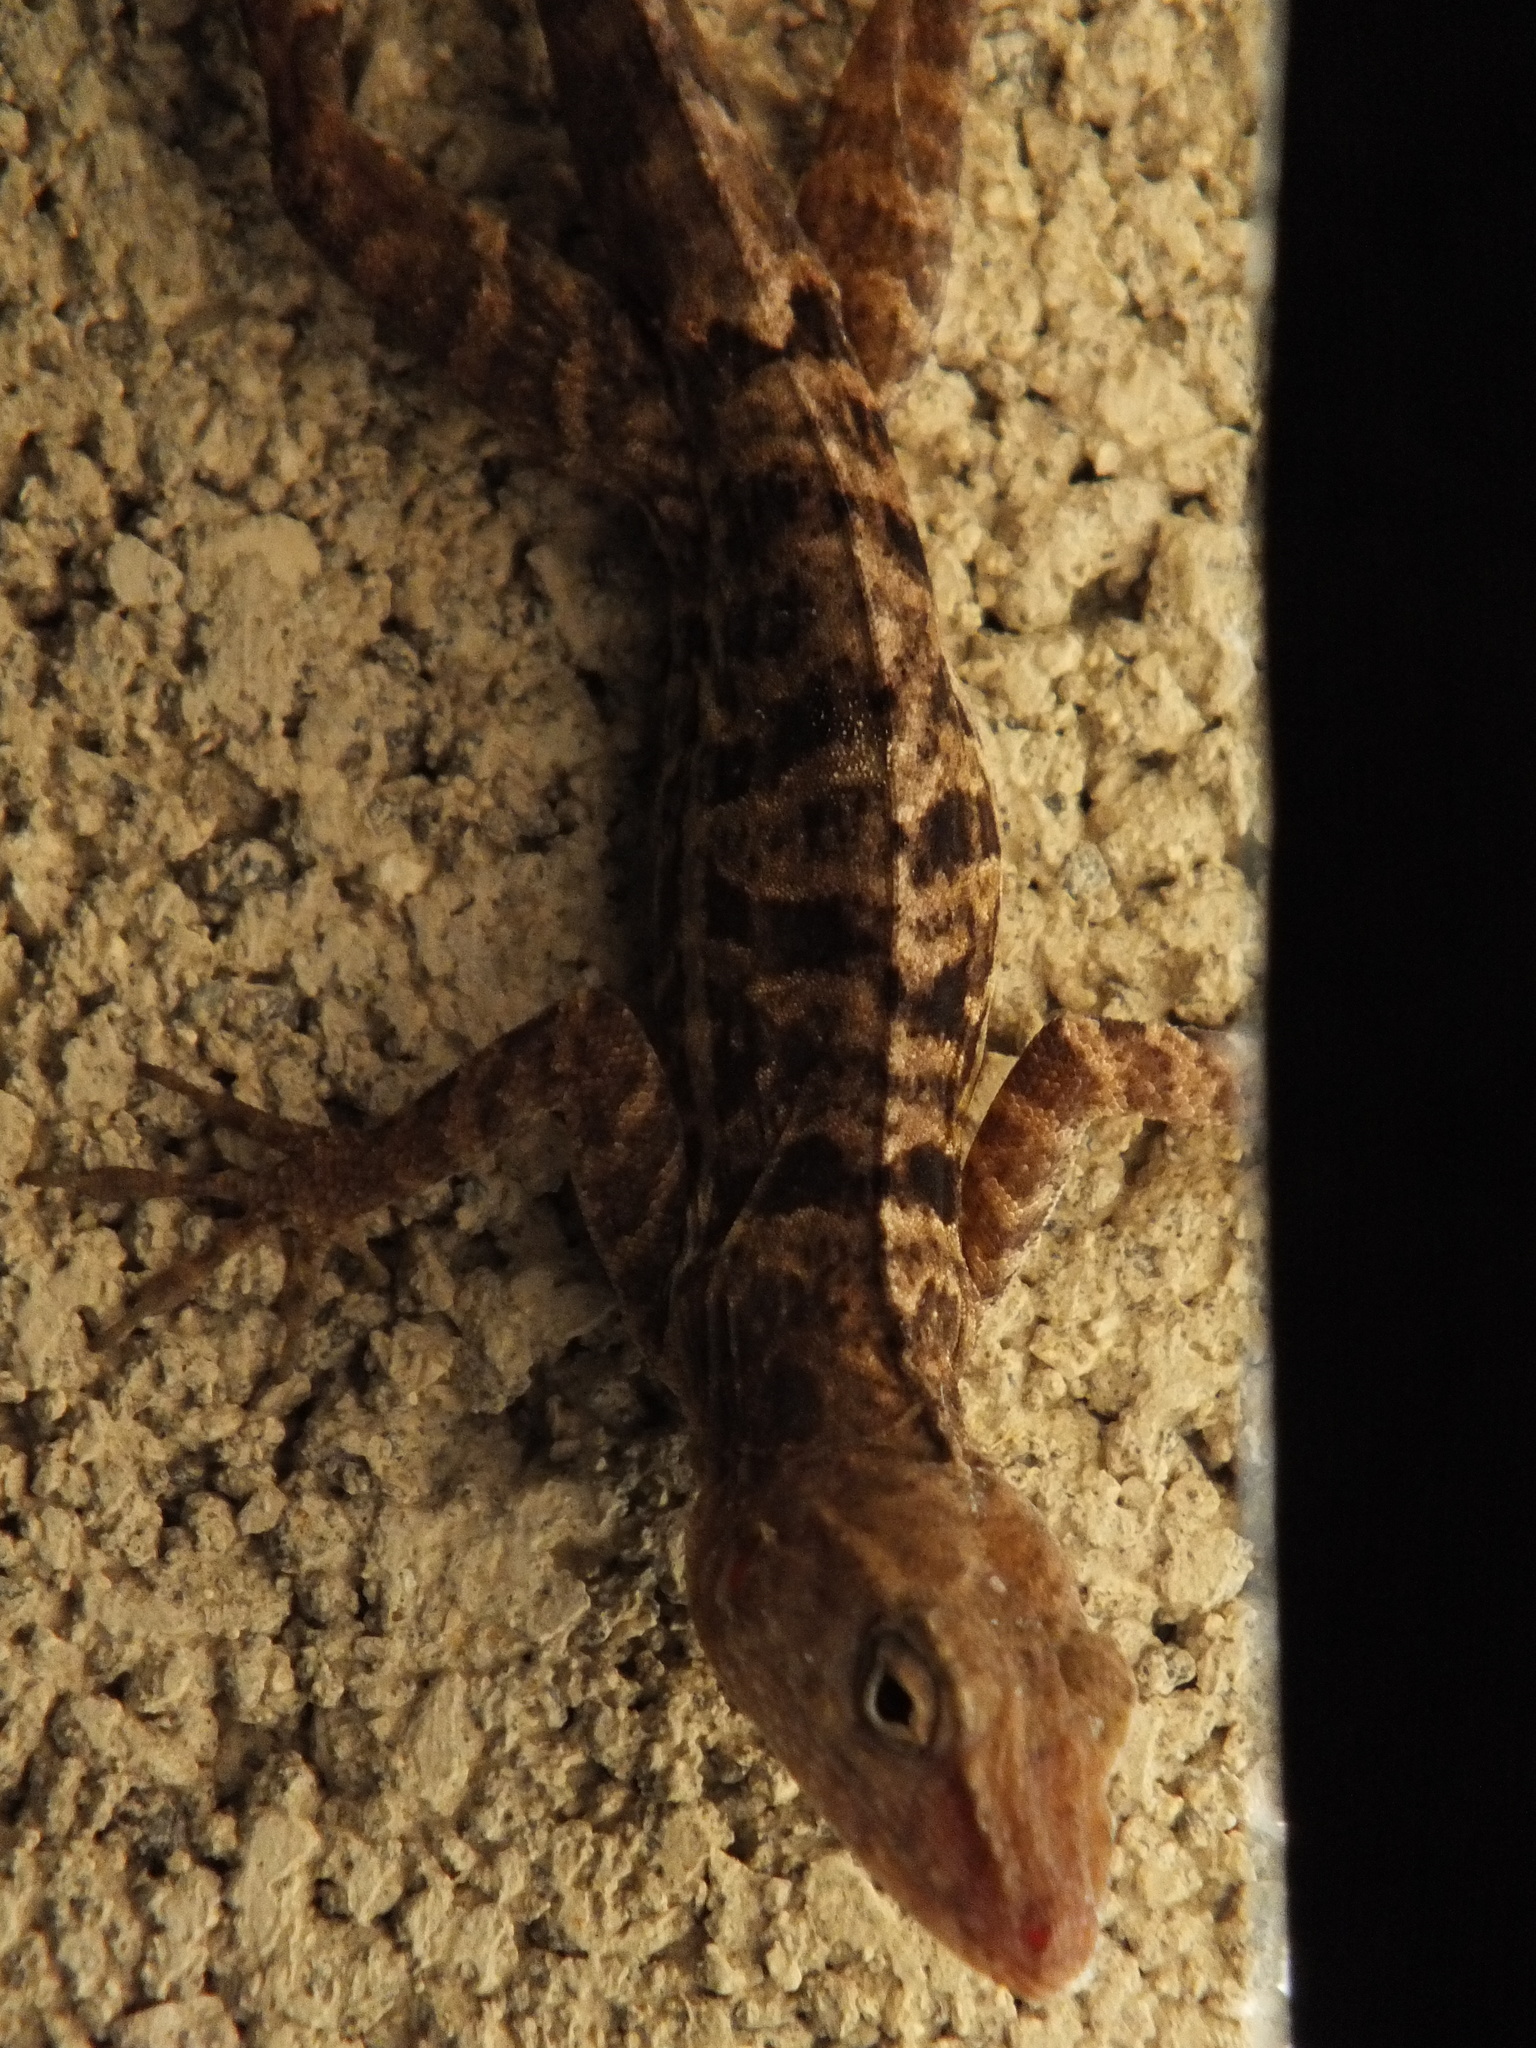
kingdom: Animalia
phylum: Chordata
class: Squamata
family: Dactyloidae
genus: Anolis
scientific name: Anolis lineatopus
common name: Stripefoot anole
